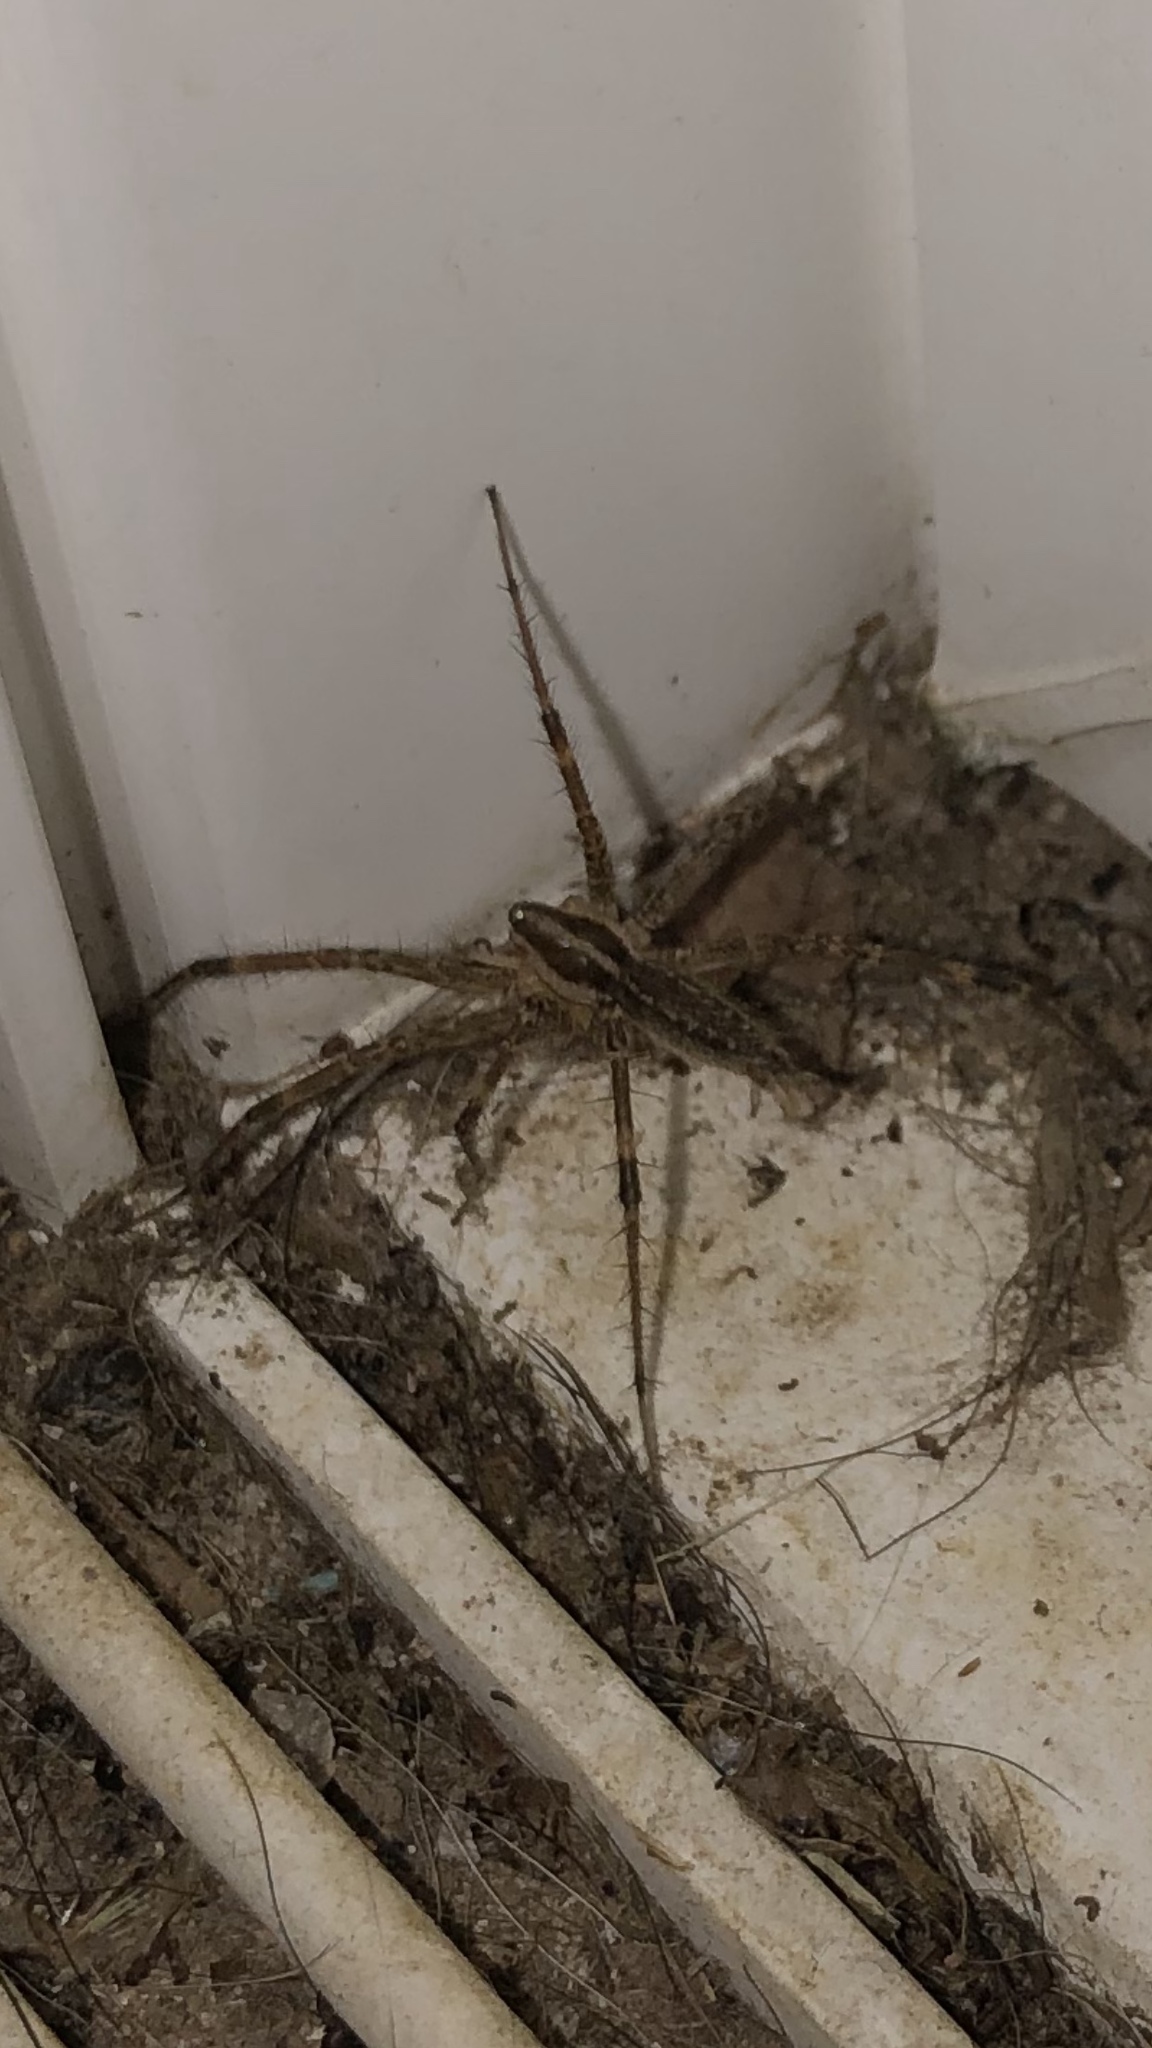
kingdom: Animalia
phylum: Arthropoda
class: Arachnida
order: Araneae
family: Agelenidae
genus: Agelenopsis
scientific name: Agelenopsis
